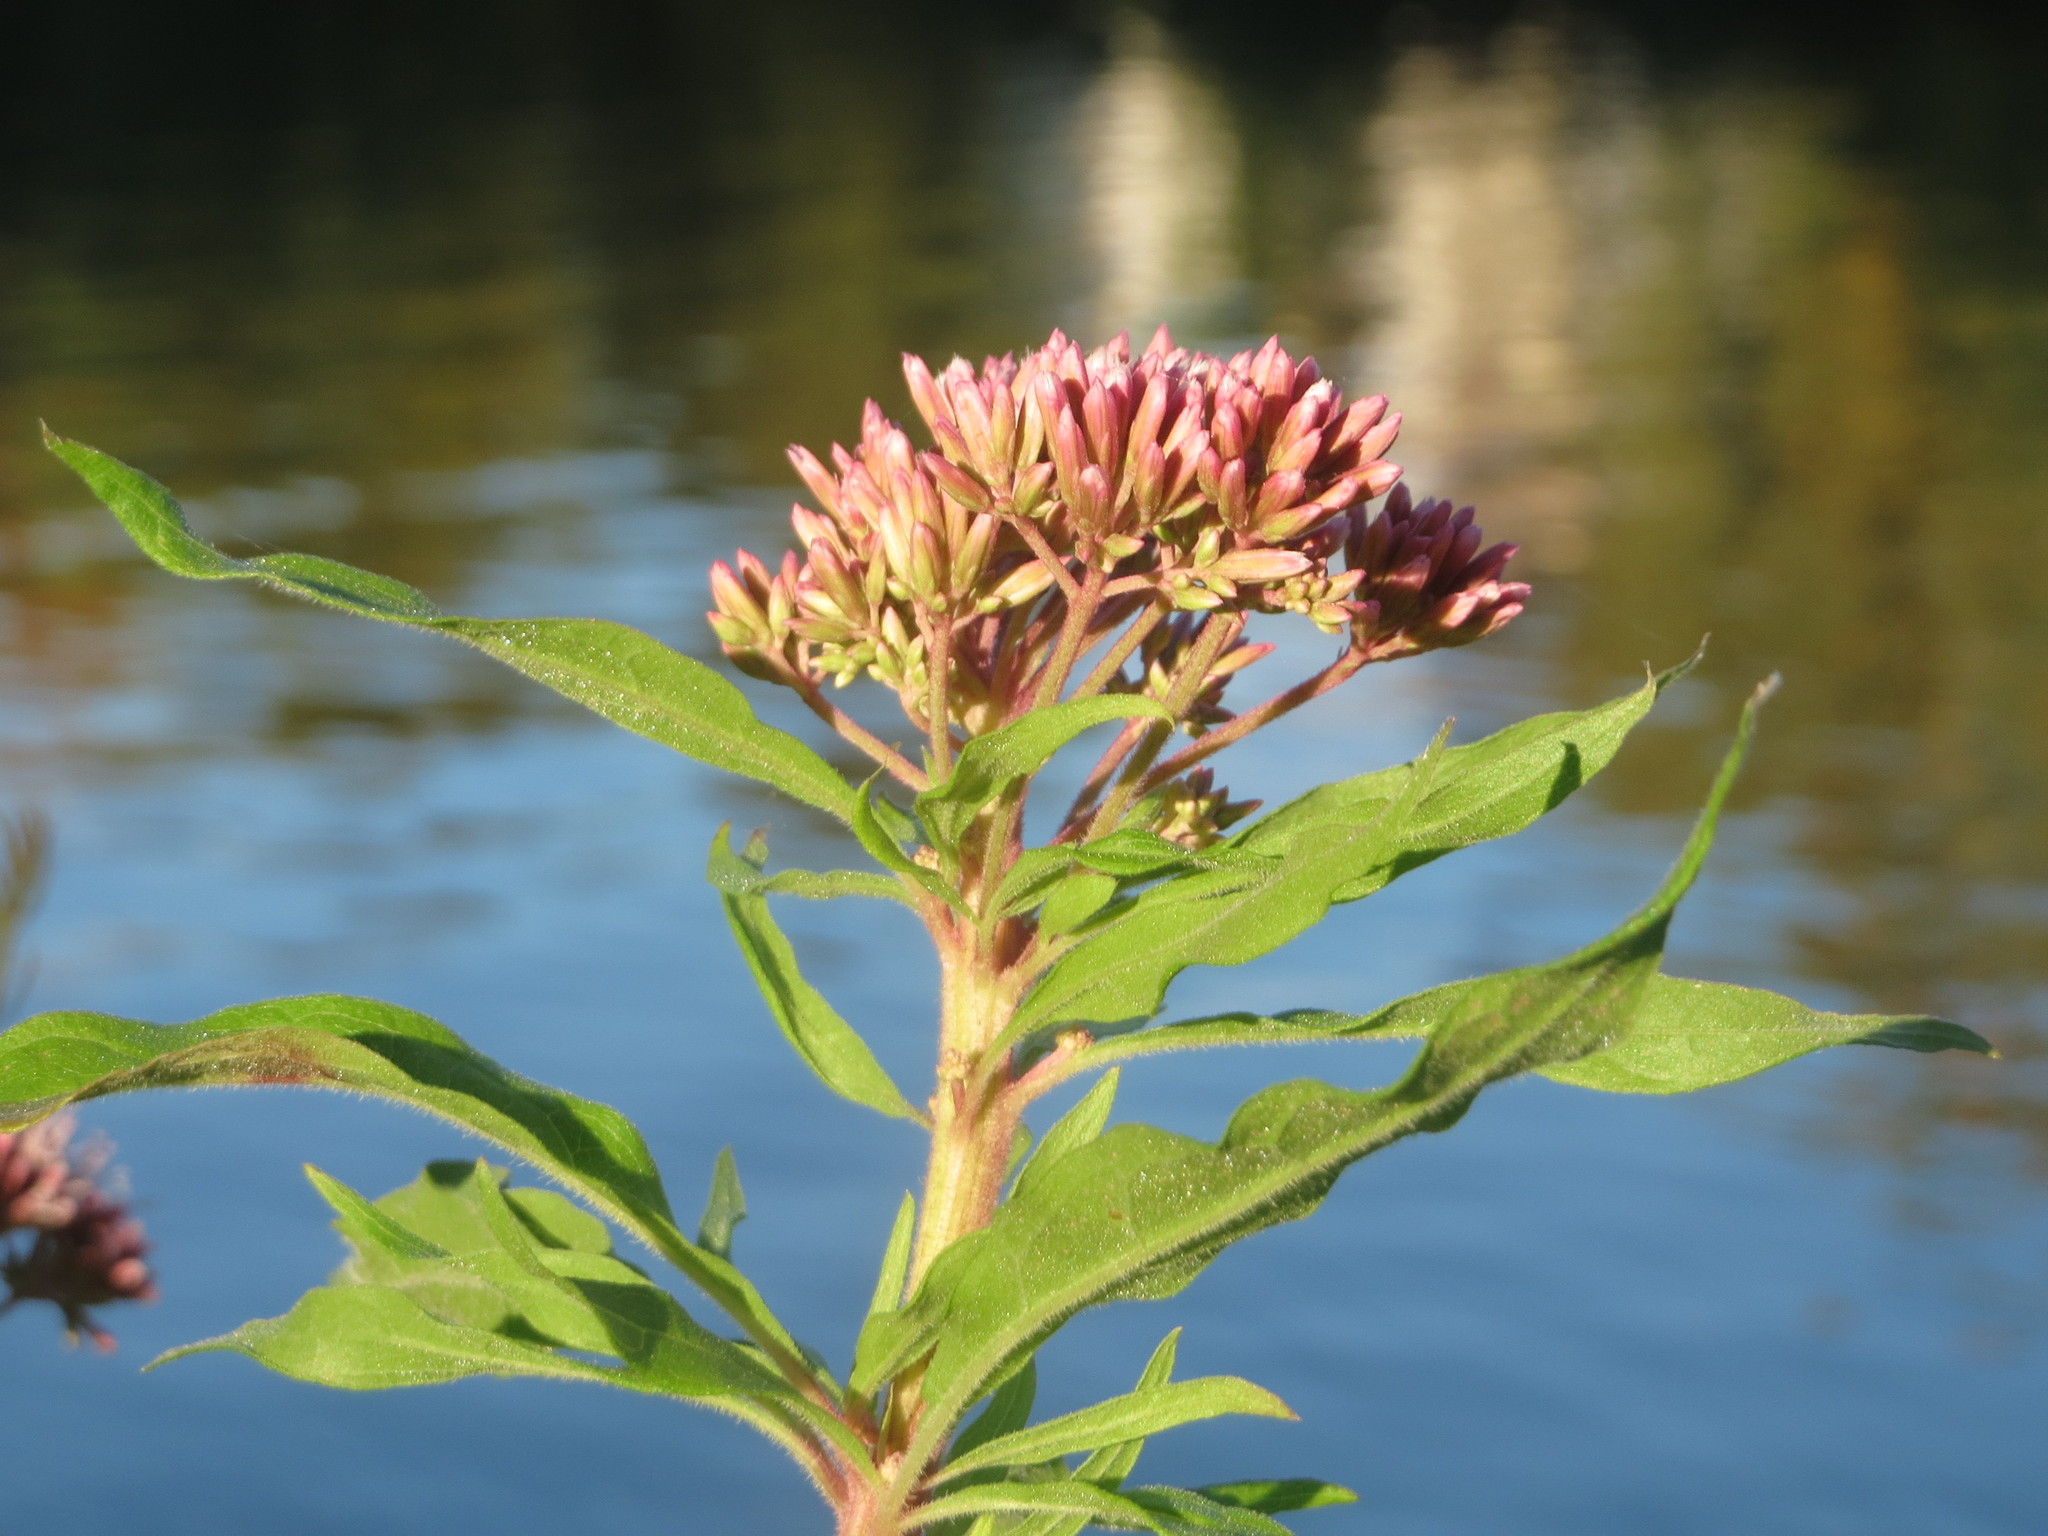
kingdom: Plantae
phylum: Tracheophyta
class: Magnoliopsida
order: Asterales
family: Asteraceae
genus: Eupatorium
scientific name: Eupatorium cannabinum
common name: Hemp-agrimony
